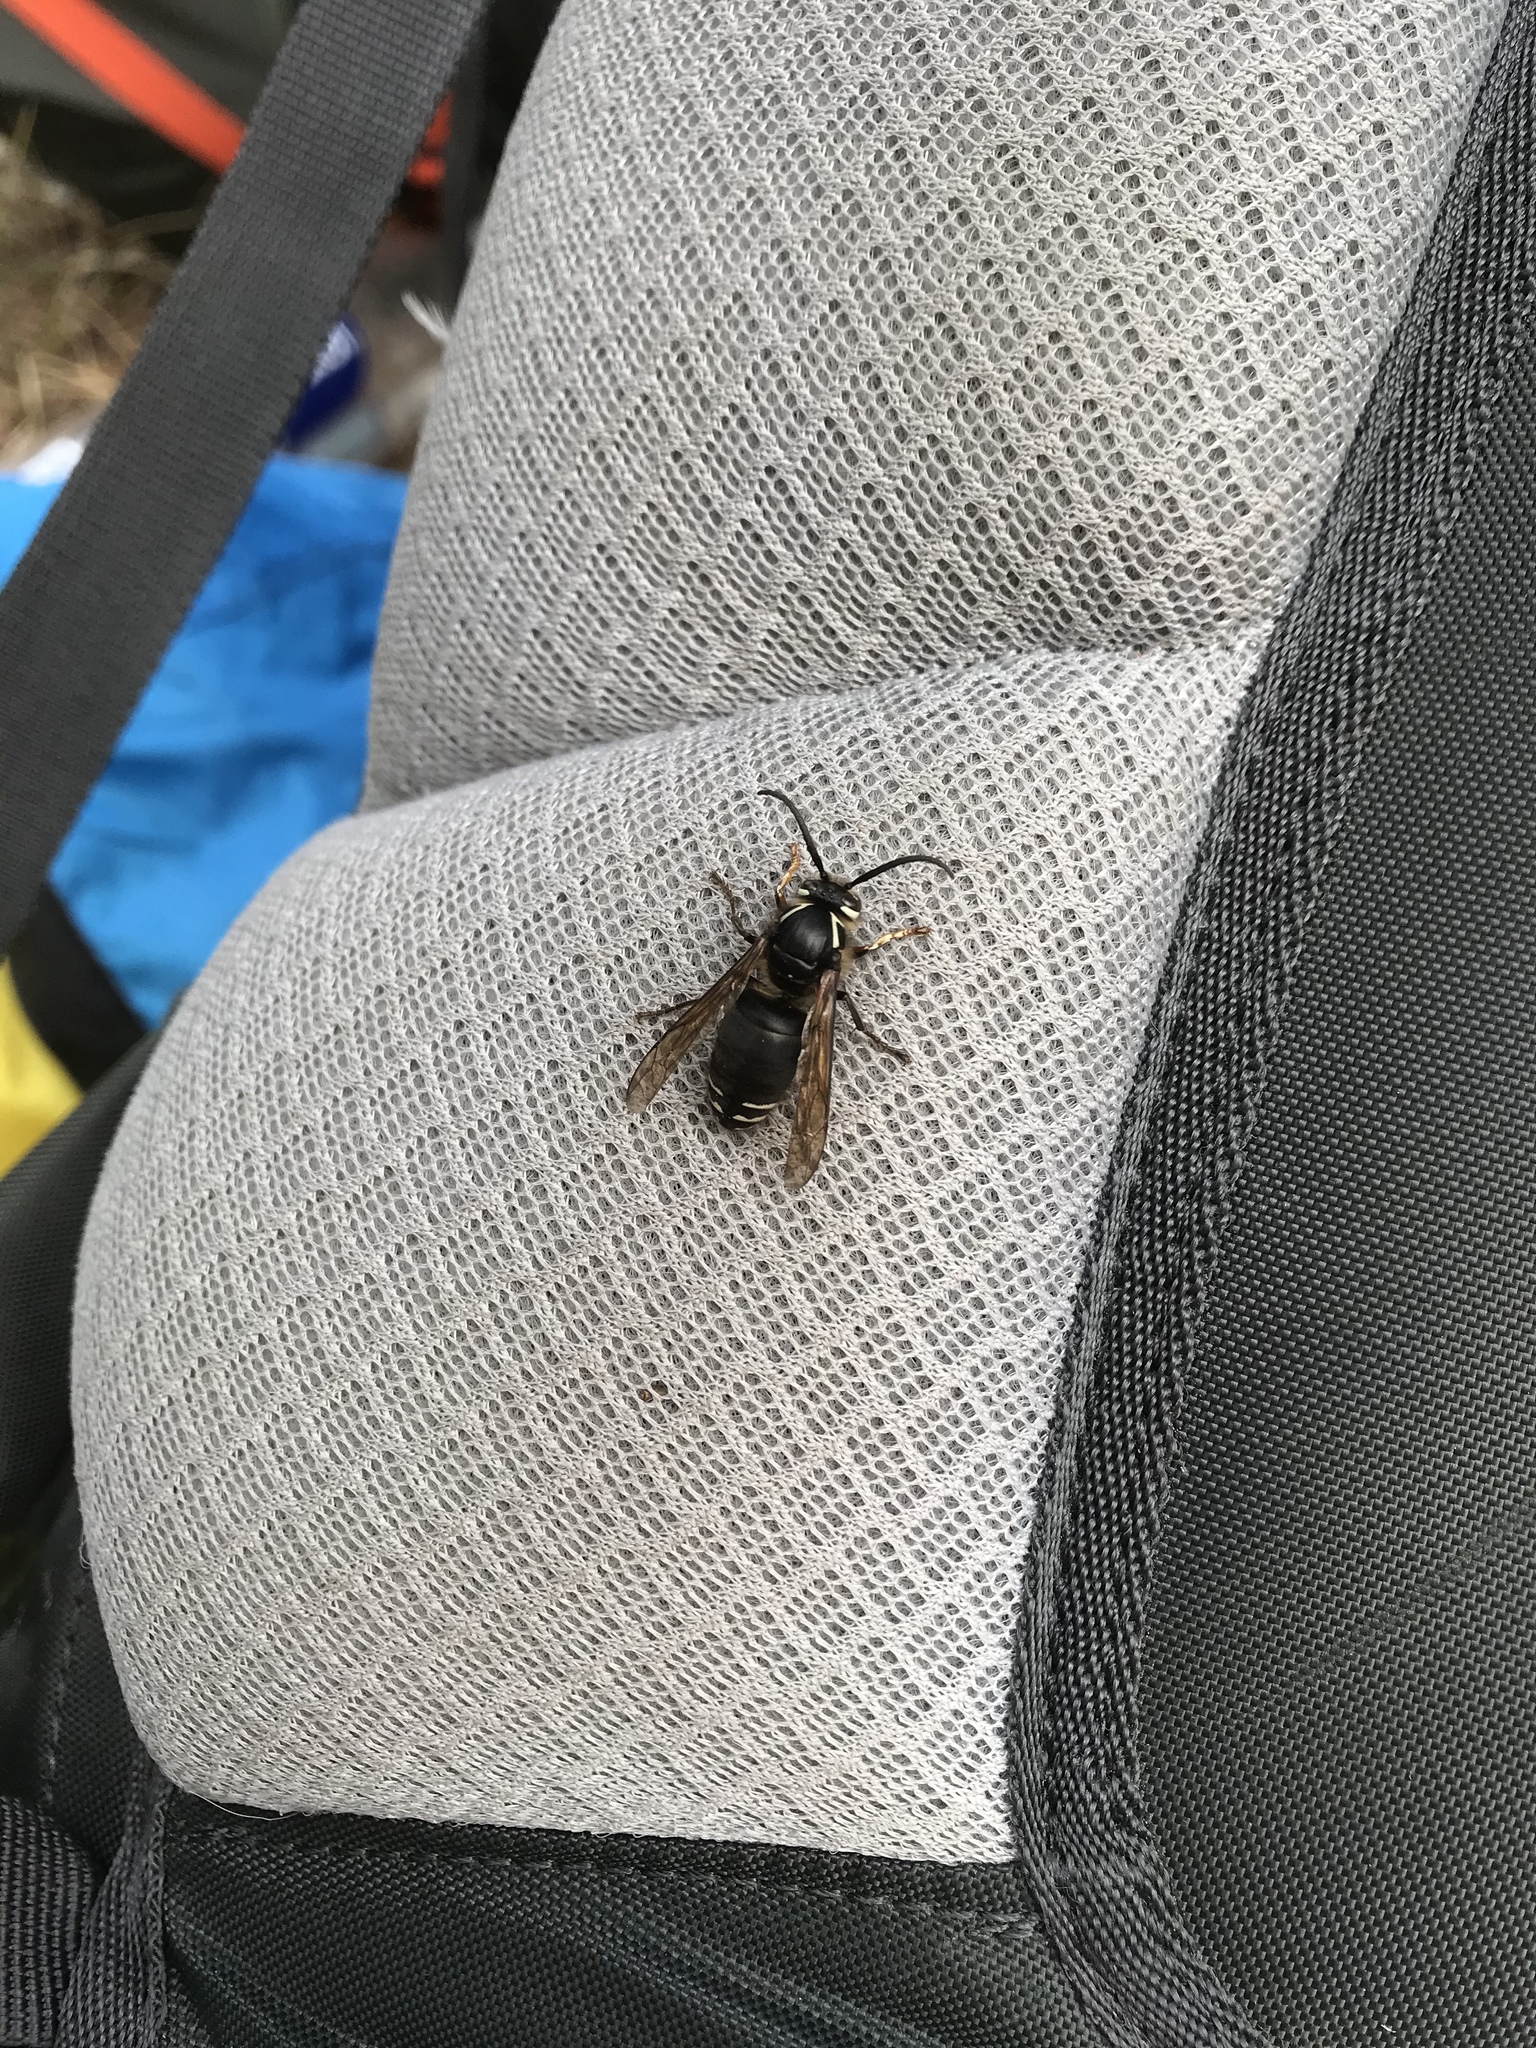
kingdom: Animalia
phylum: Arthropoda
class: Insecta
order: Hymenoptera
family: Vespidae
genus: Dolichovespula
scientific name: Dolichovespula maculata
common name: Bald-faced hornet
